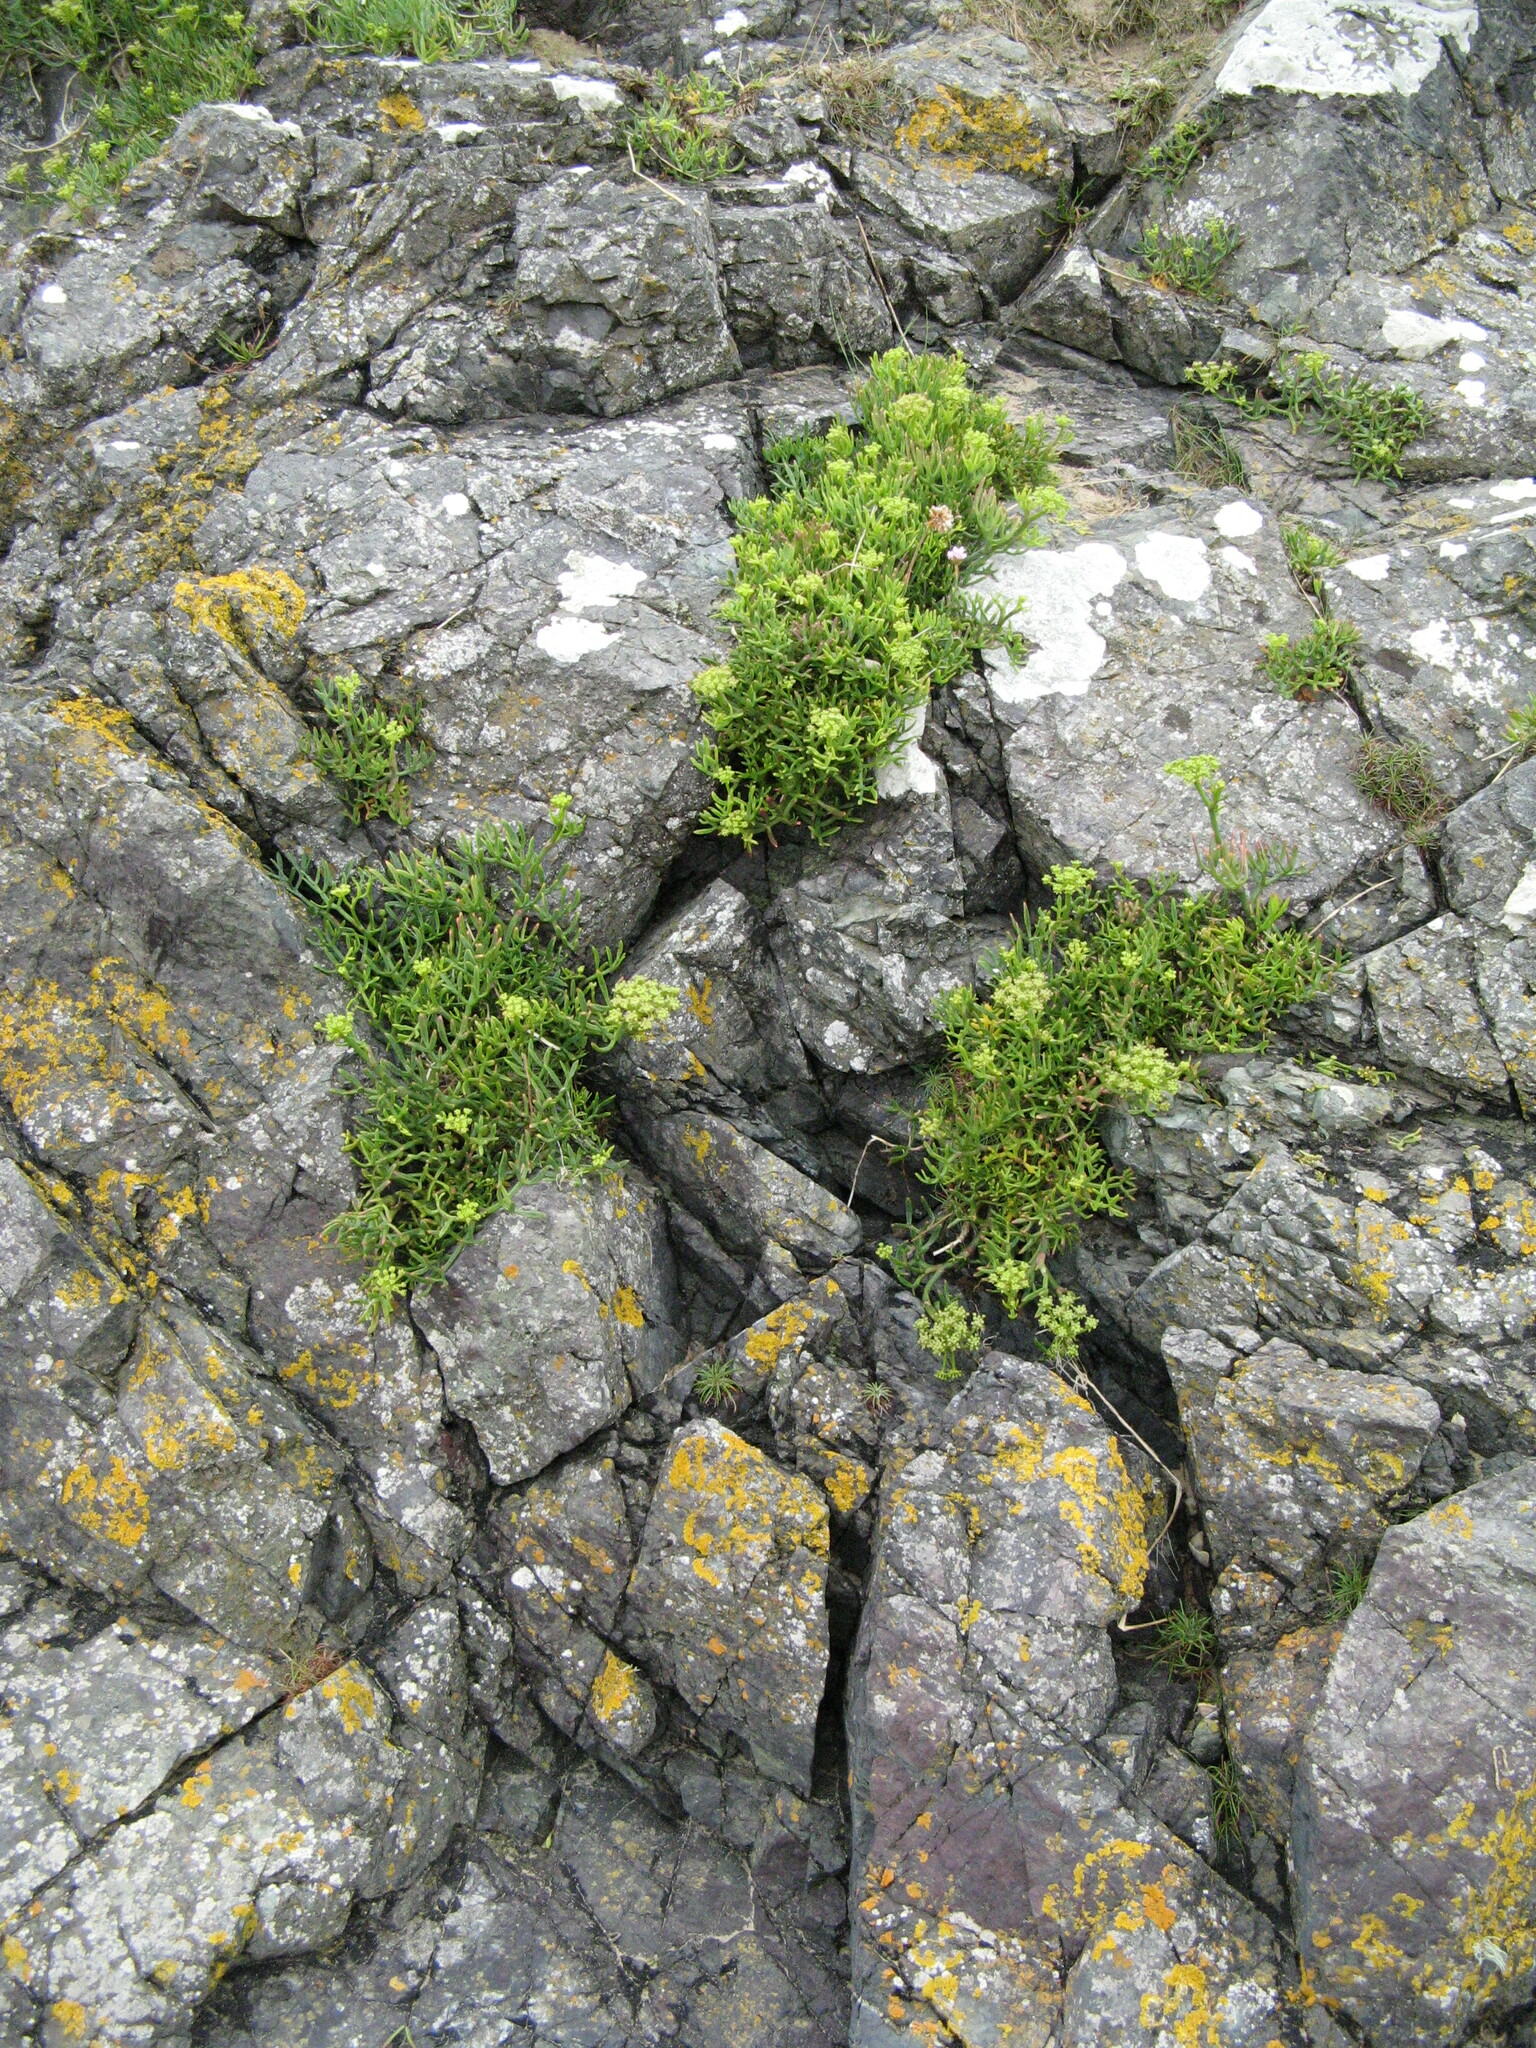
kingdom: Plantae
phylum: Tracheophyta
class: Magnoliopsida
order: Apiales
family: Apiaceae
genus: Crithmum
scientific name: Crithmum maritimum
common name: Rock samphire
